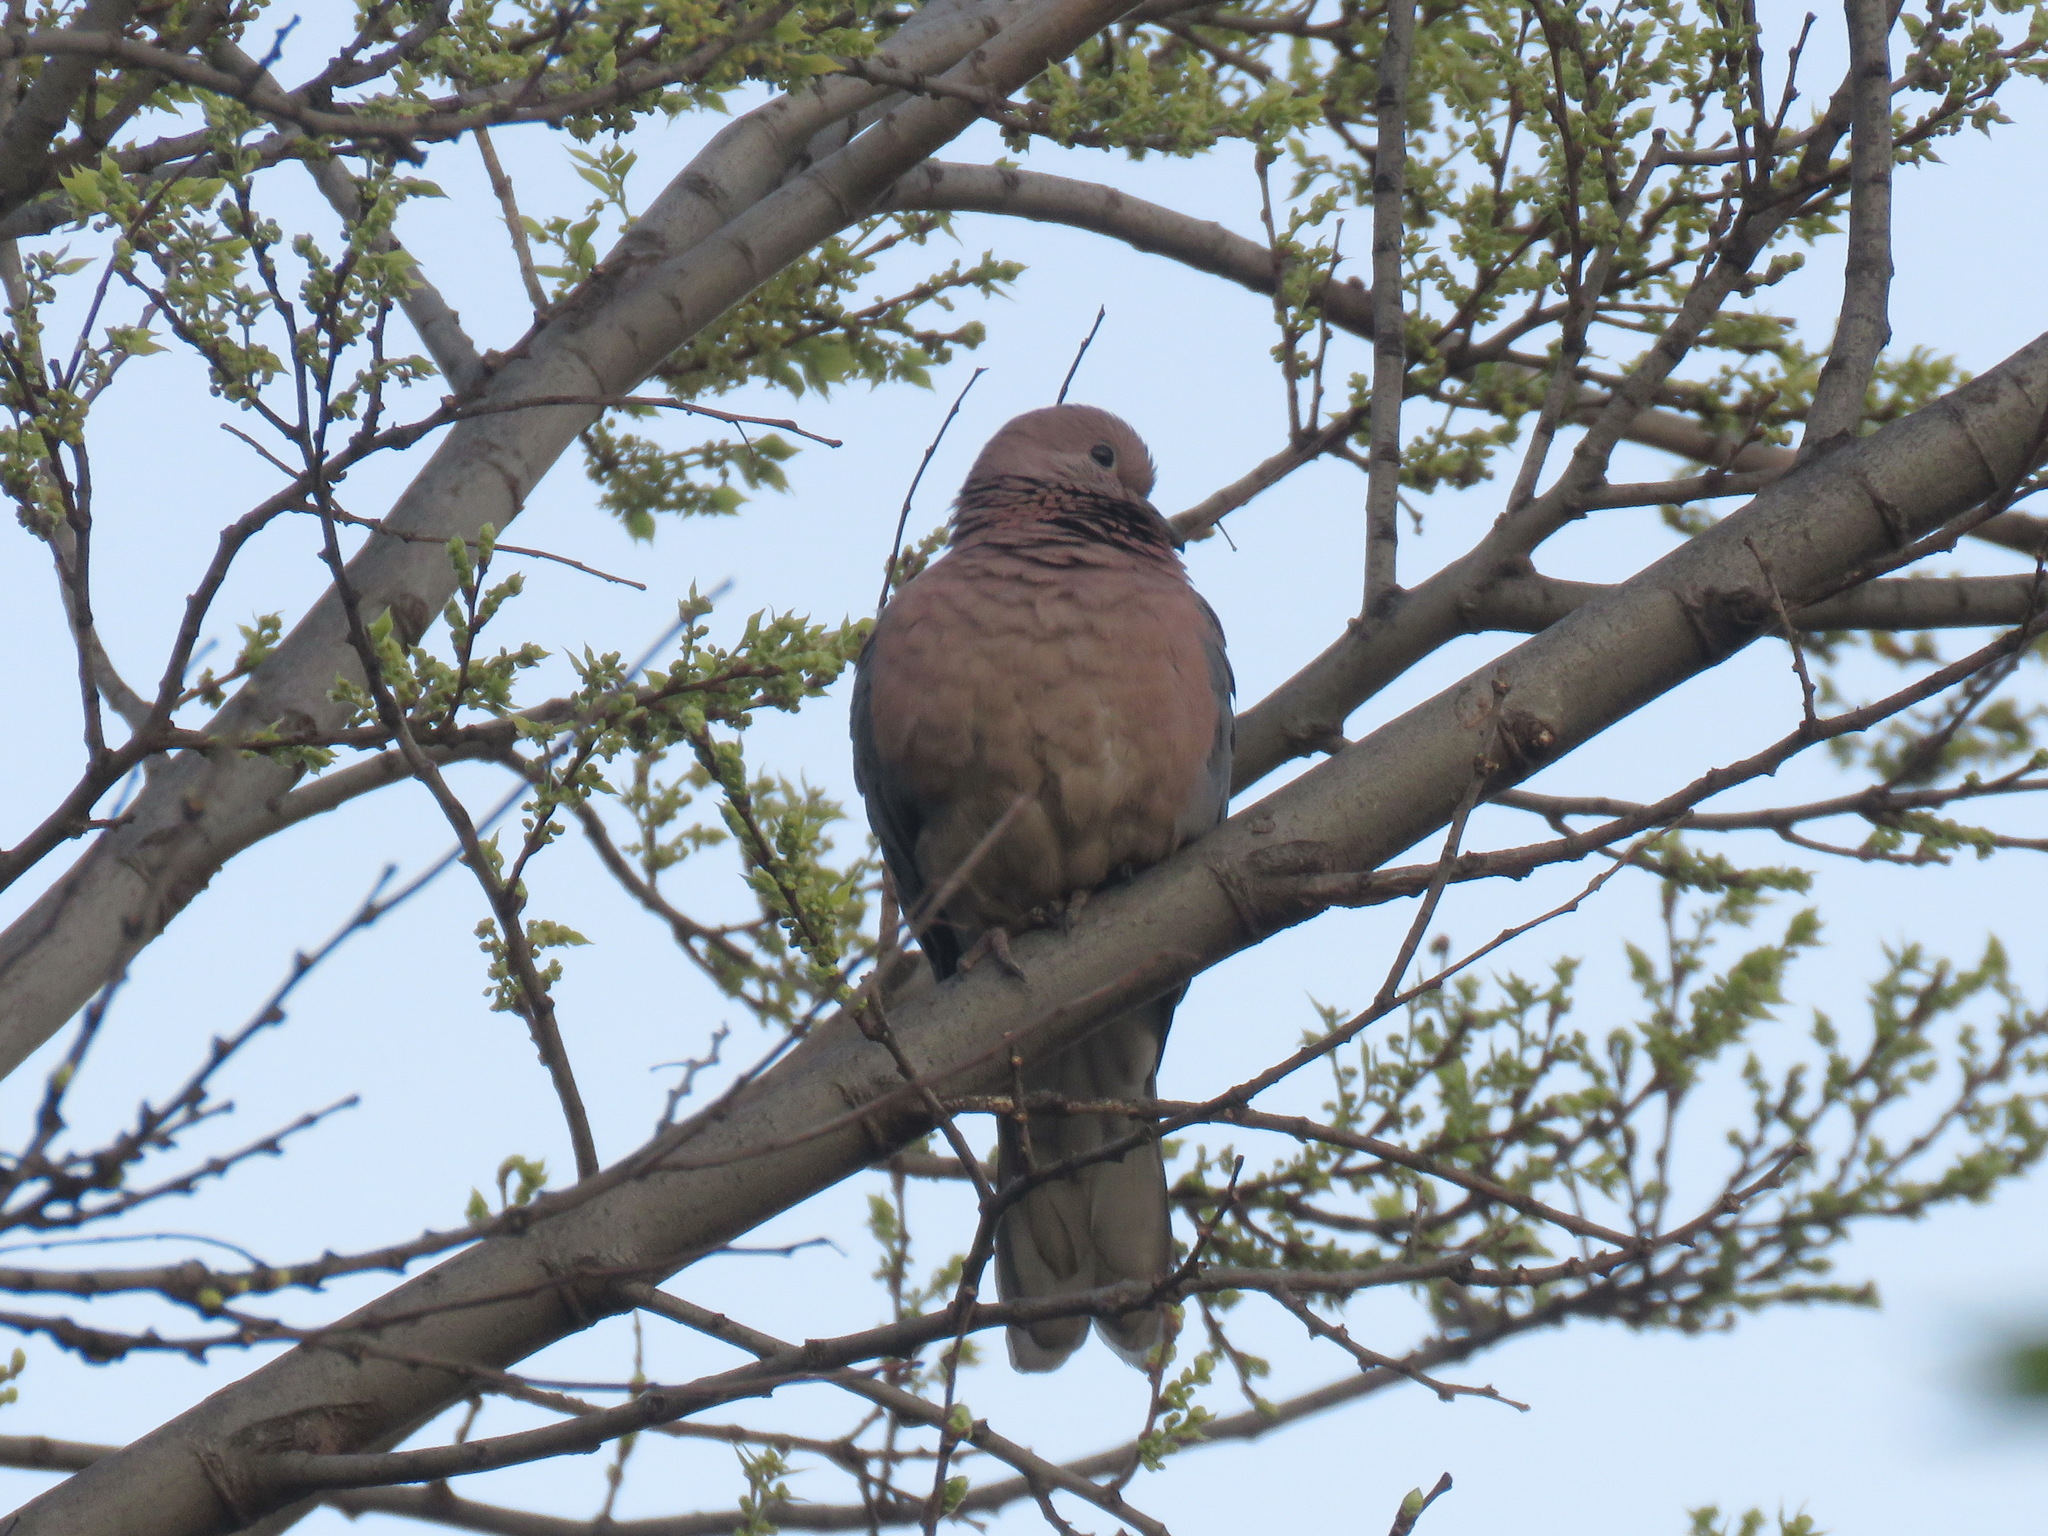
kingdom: Animalia
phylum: Chordata
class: Aves
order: Columbiformes
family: Columbidae
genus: Spilopelia
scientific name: Spilopelia senegalensis
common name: Laughing dove
